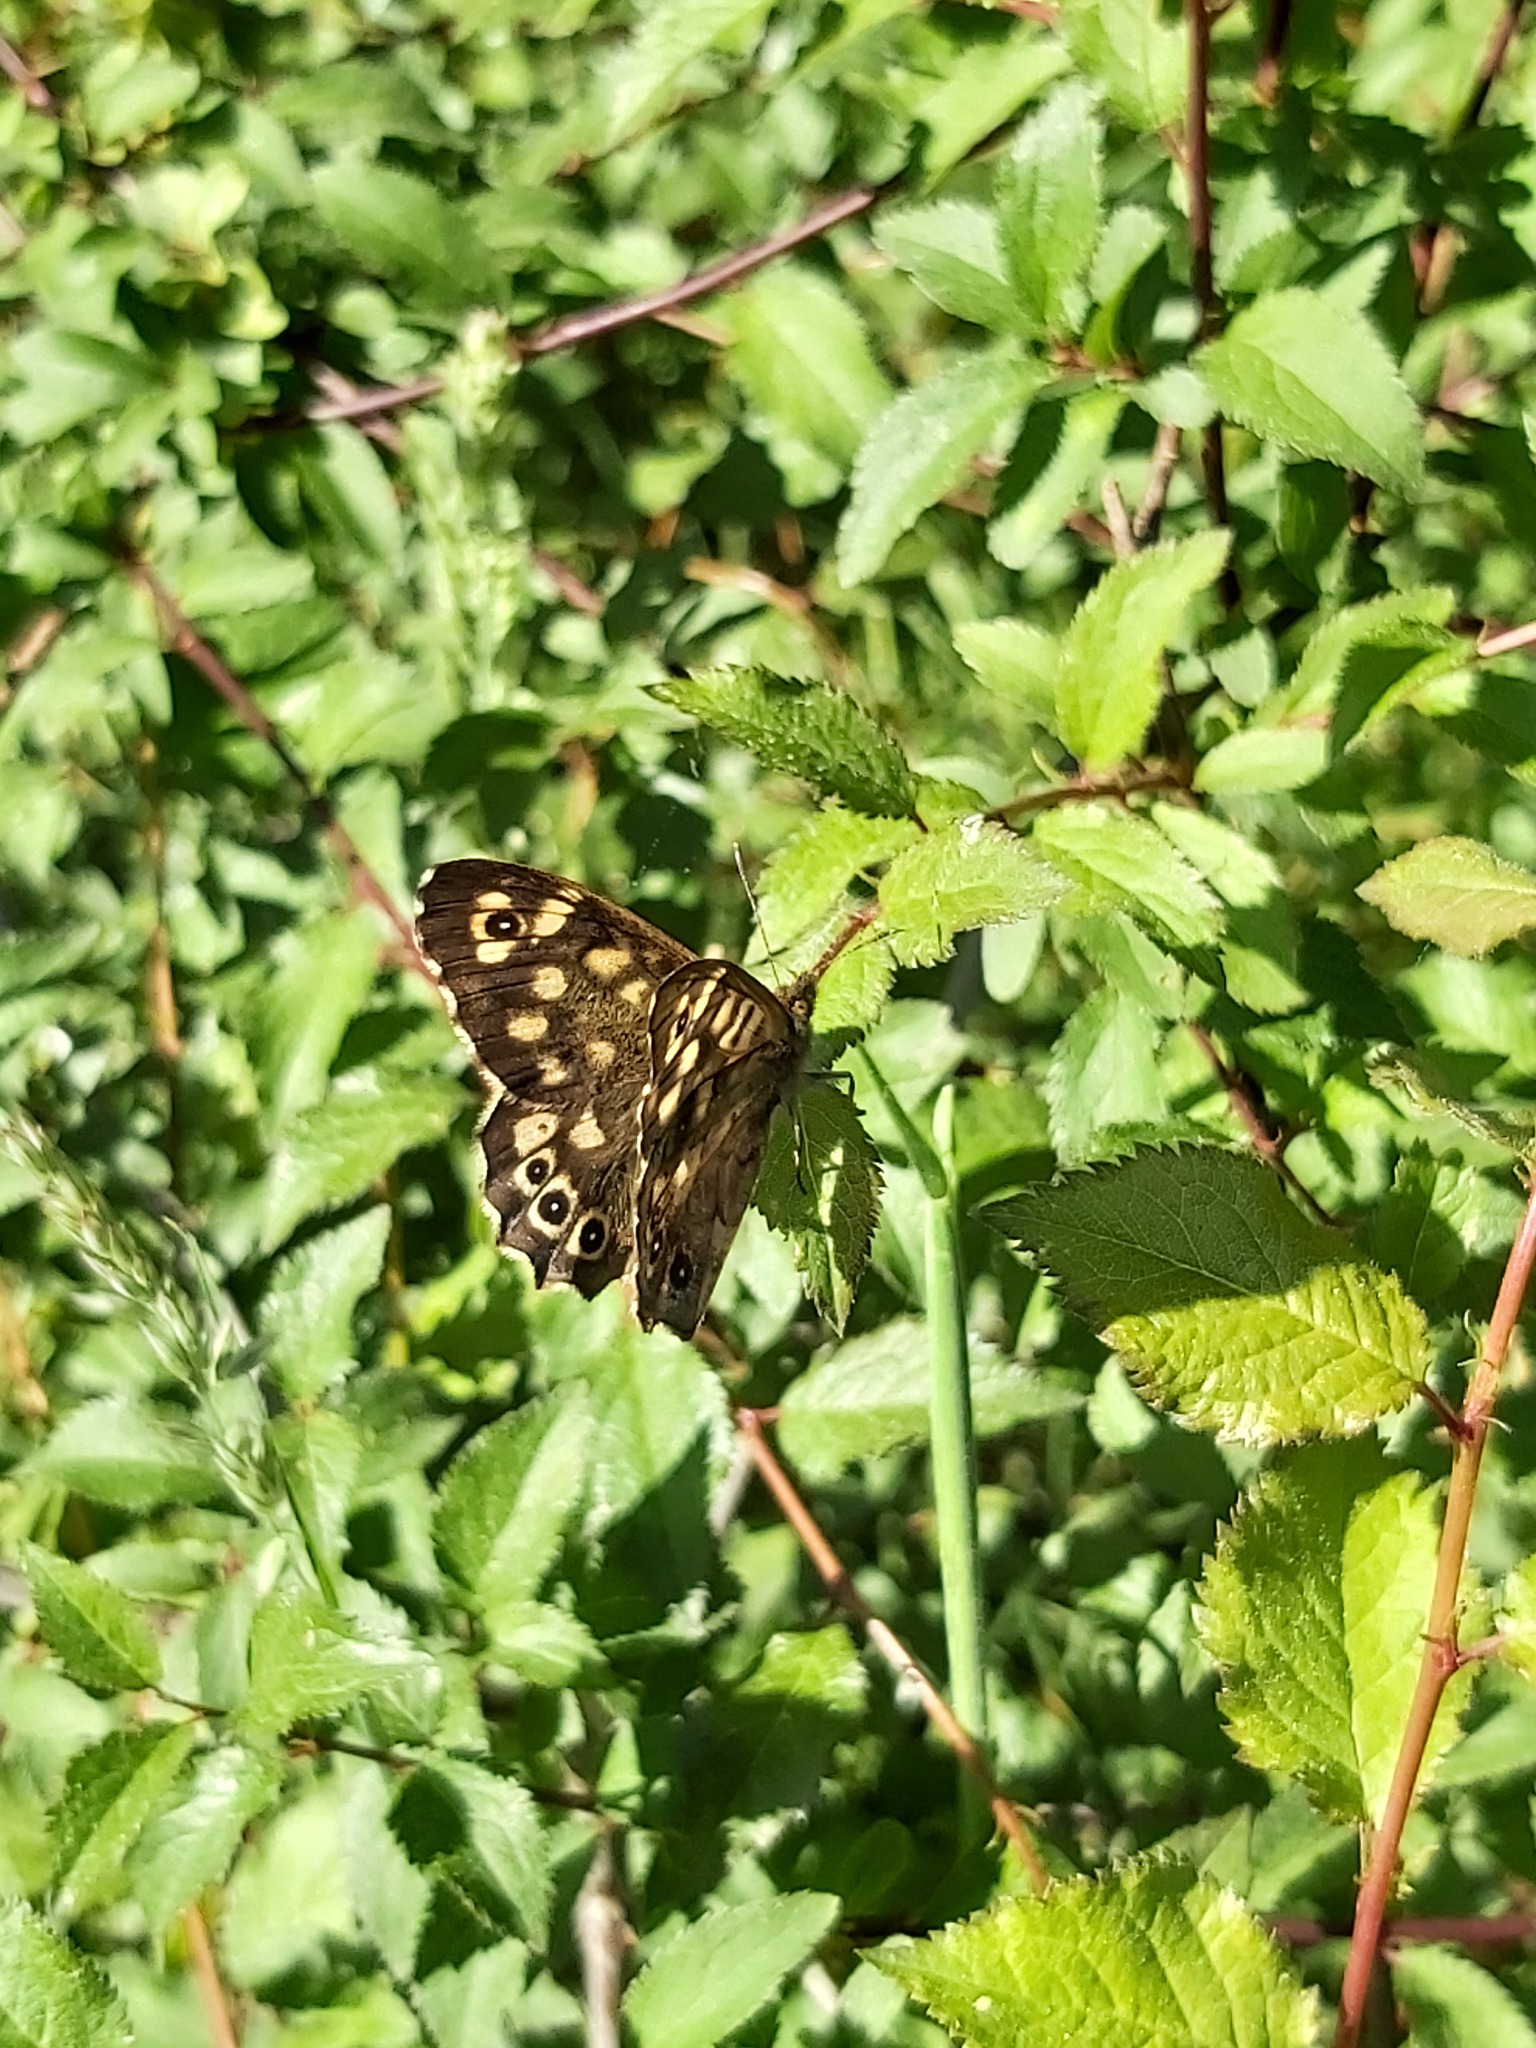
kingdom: Animalia
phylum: Arthropoda
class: Insecta
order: Lepidoptera
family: Nymphalidae
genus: Pararge
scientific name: Pararge aegeria
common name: Speckled wood
